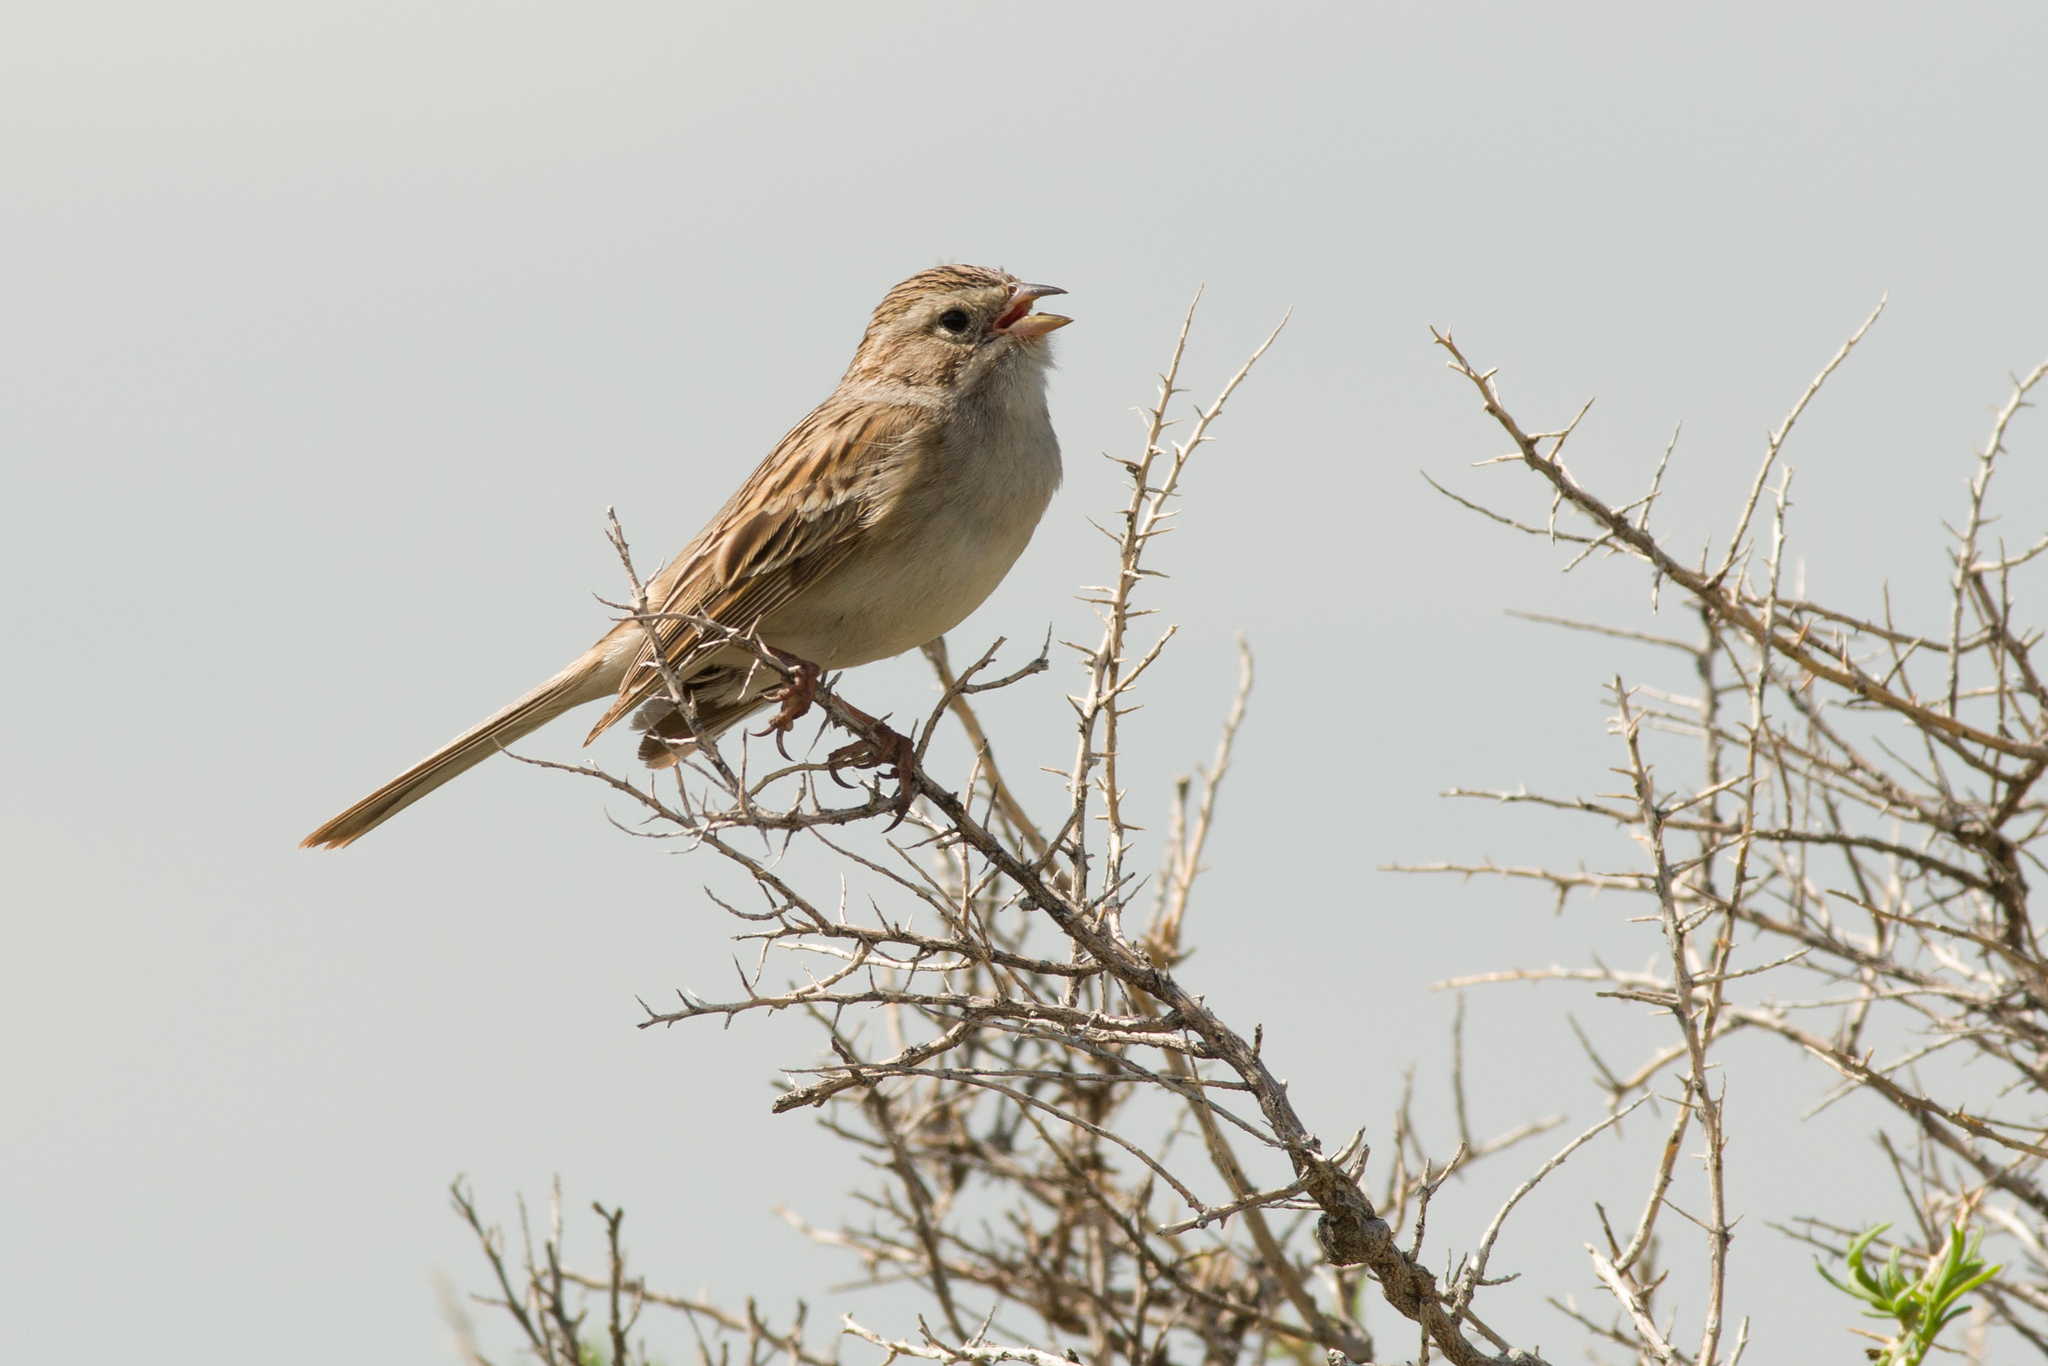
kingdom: Animalia
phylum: Chordata
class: Aves
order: Passeriformes
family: Passerellidae
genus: Spizella
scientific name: Spizella pallida
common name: Clay-colored sparrow
